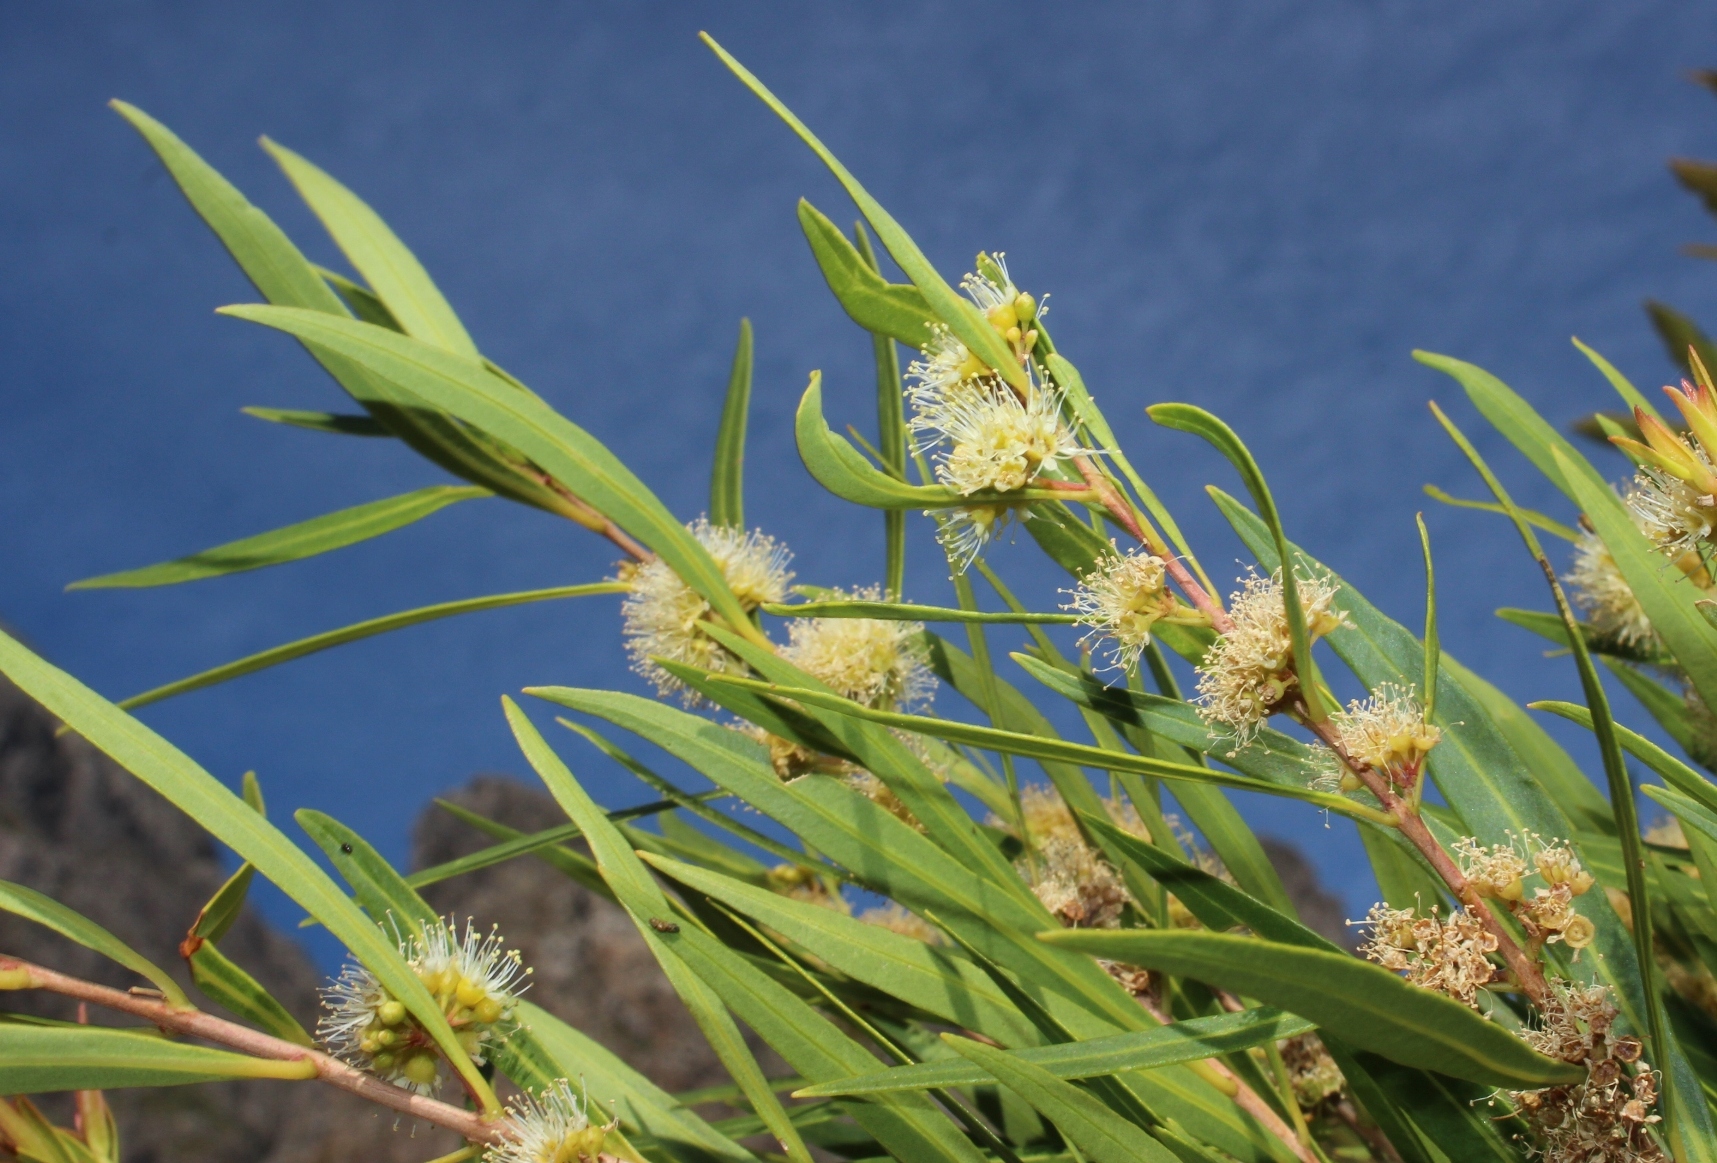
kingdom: Plantae
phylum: Tracheophyta
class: Magnoliopsida
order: Myrtales
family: Myrtaceae
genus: Callistemon
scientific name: Callistemon lanceolatus
